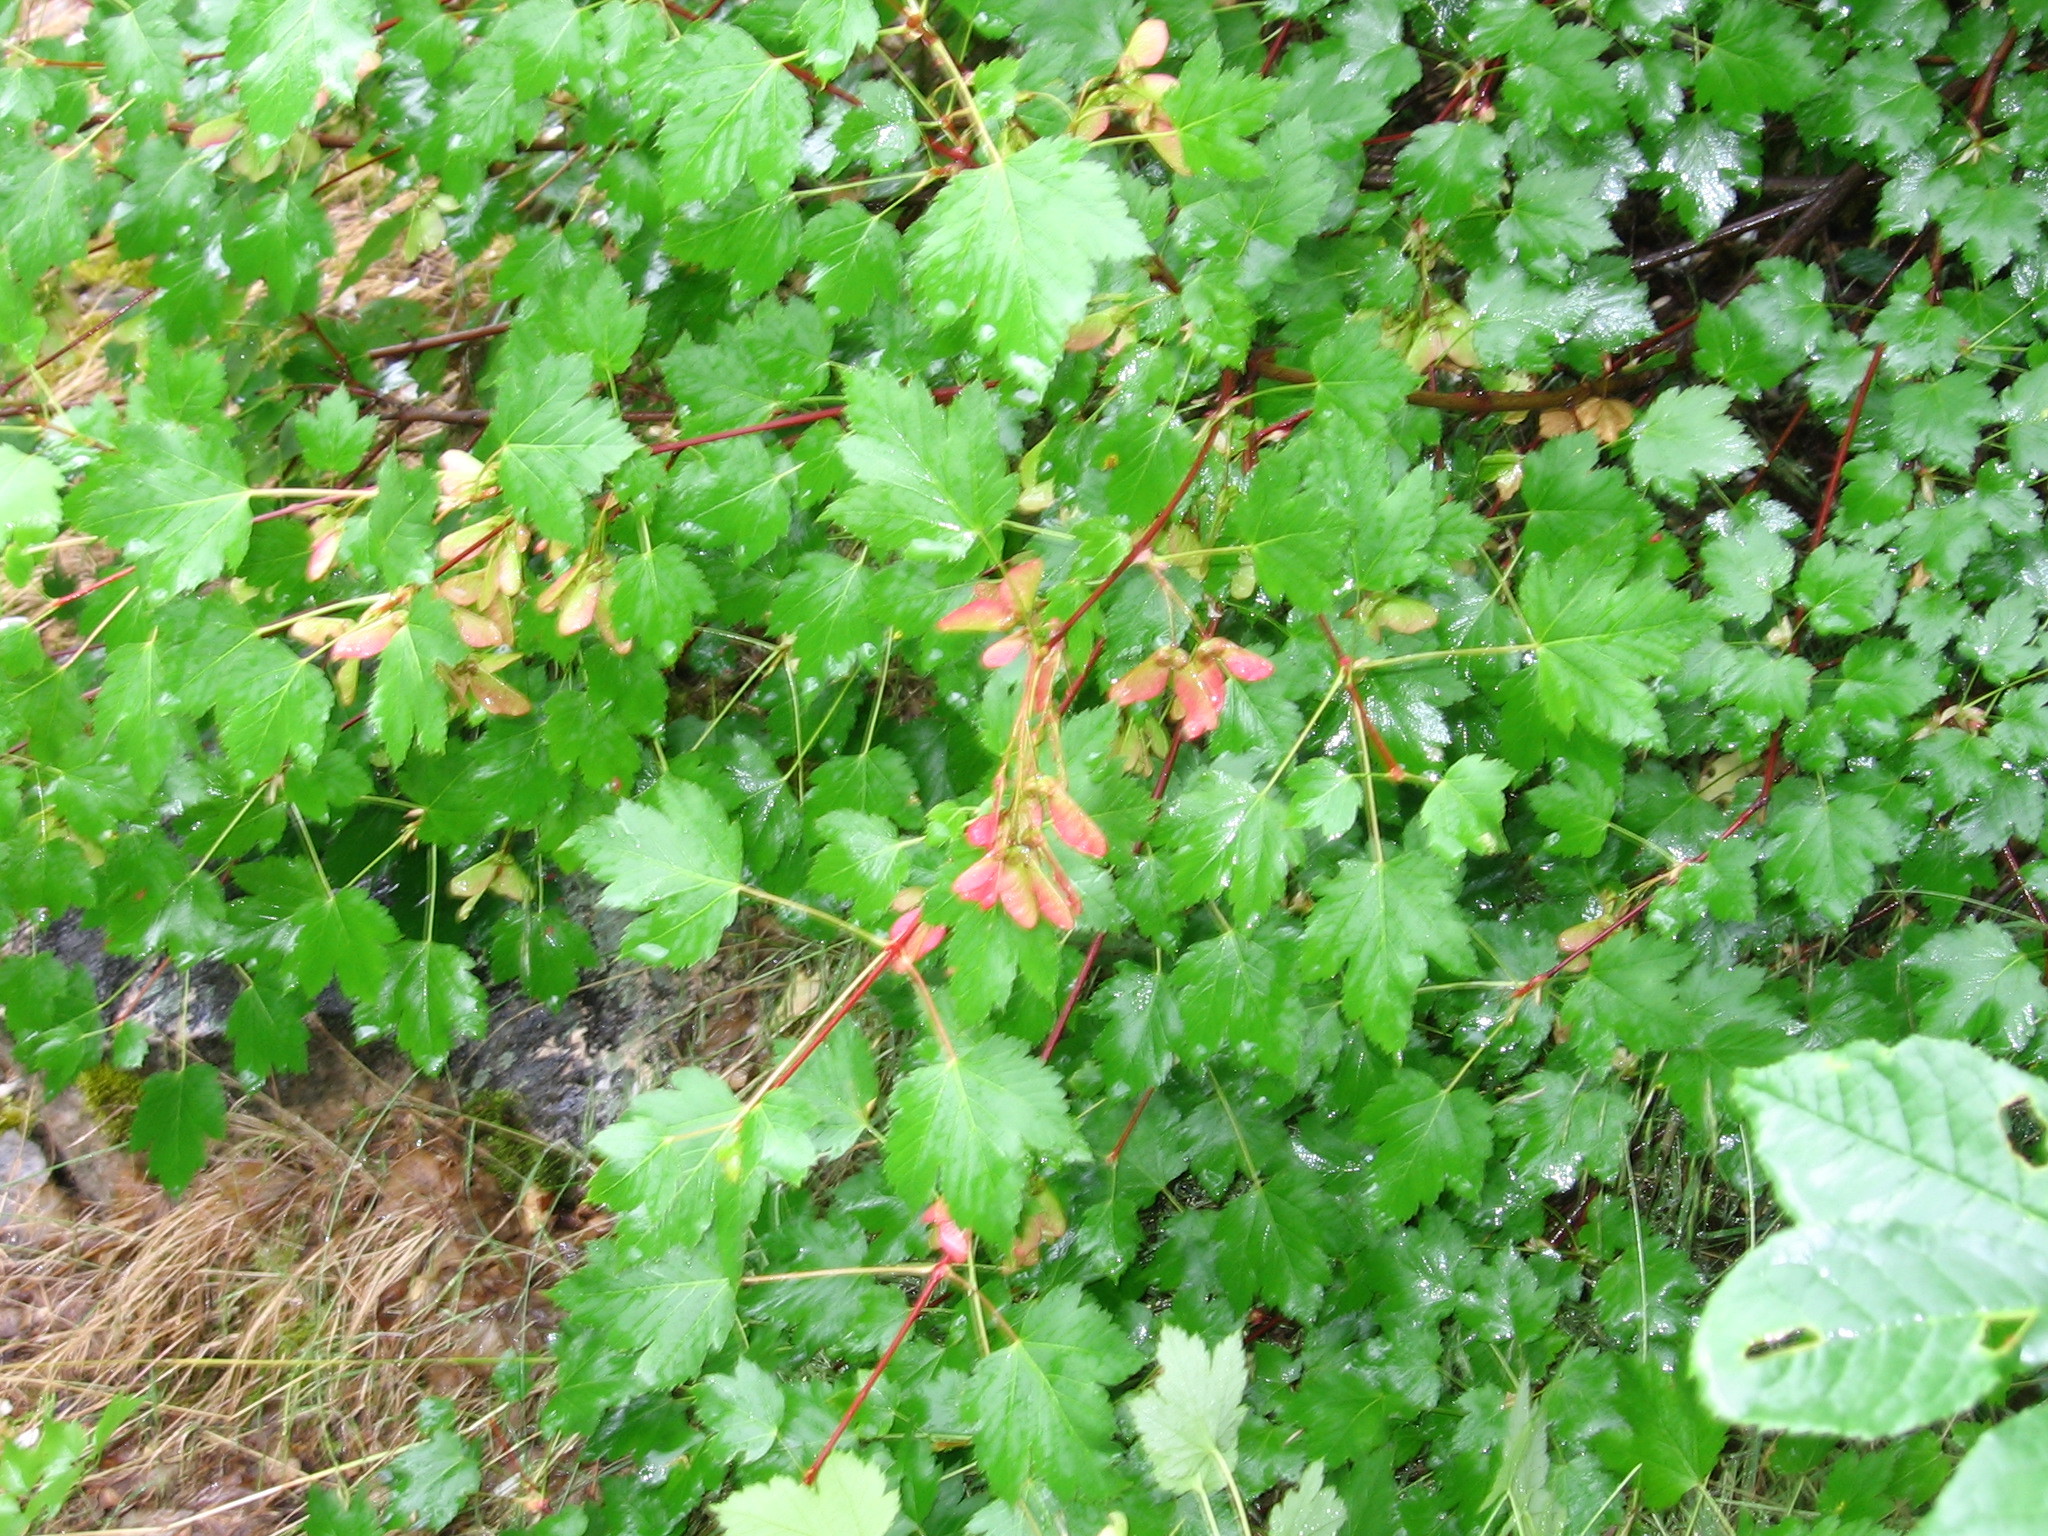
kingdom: Plantae
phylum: Tracheophyta
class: Magnoliopsida
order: Sapindales
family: Sapindaceae
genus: Acer
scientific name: Acer glabrum
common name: Rocky mountain maple
